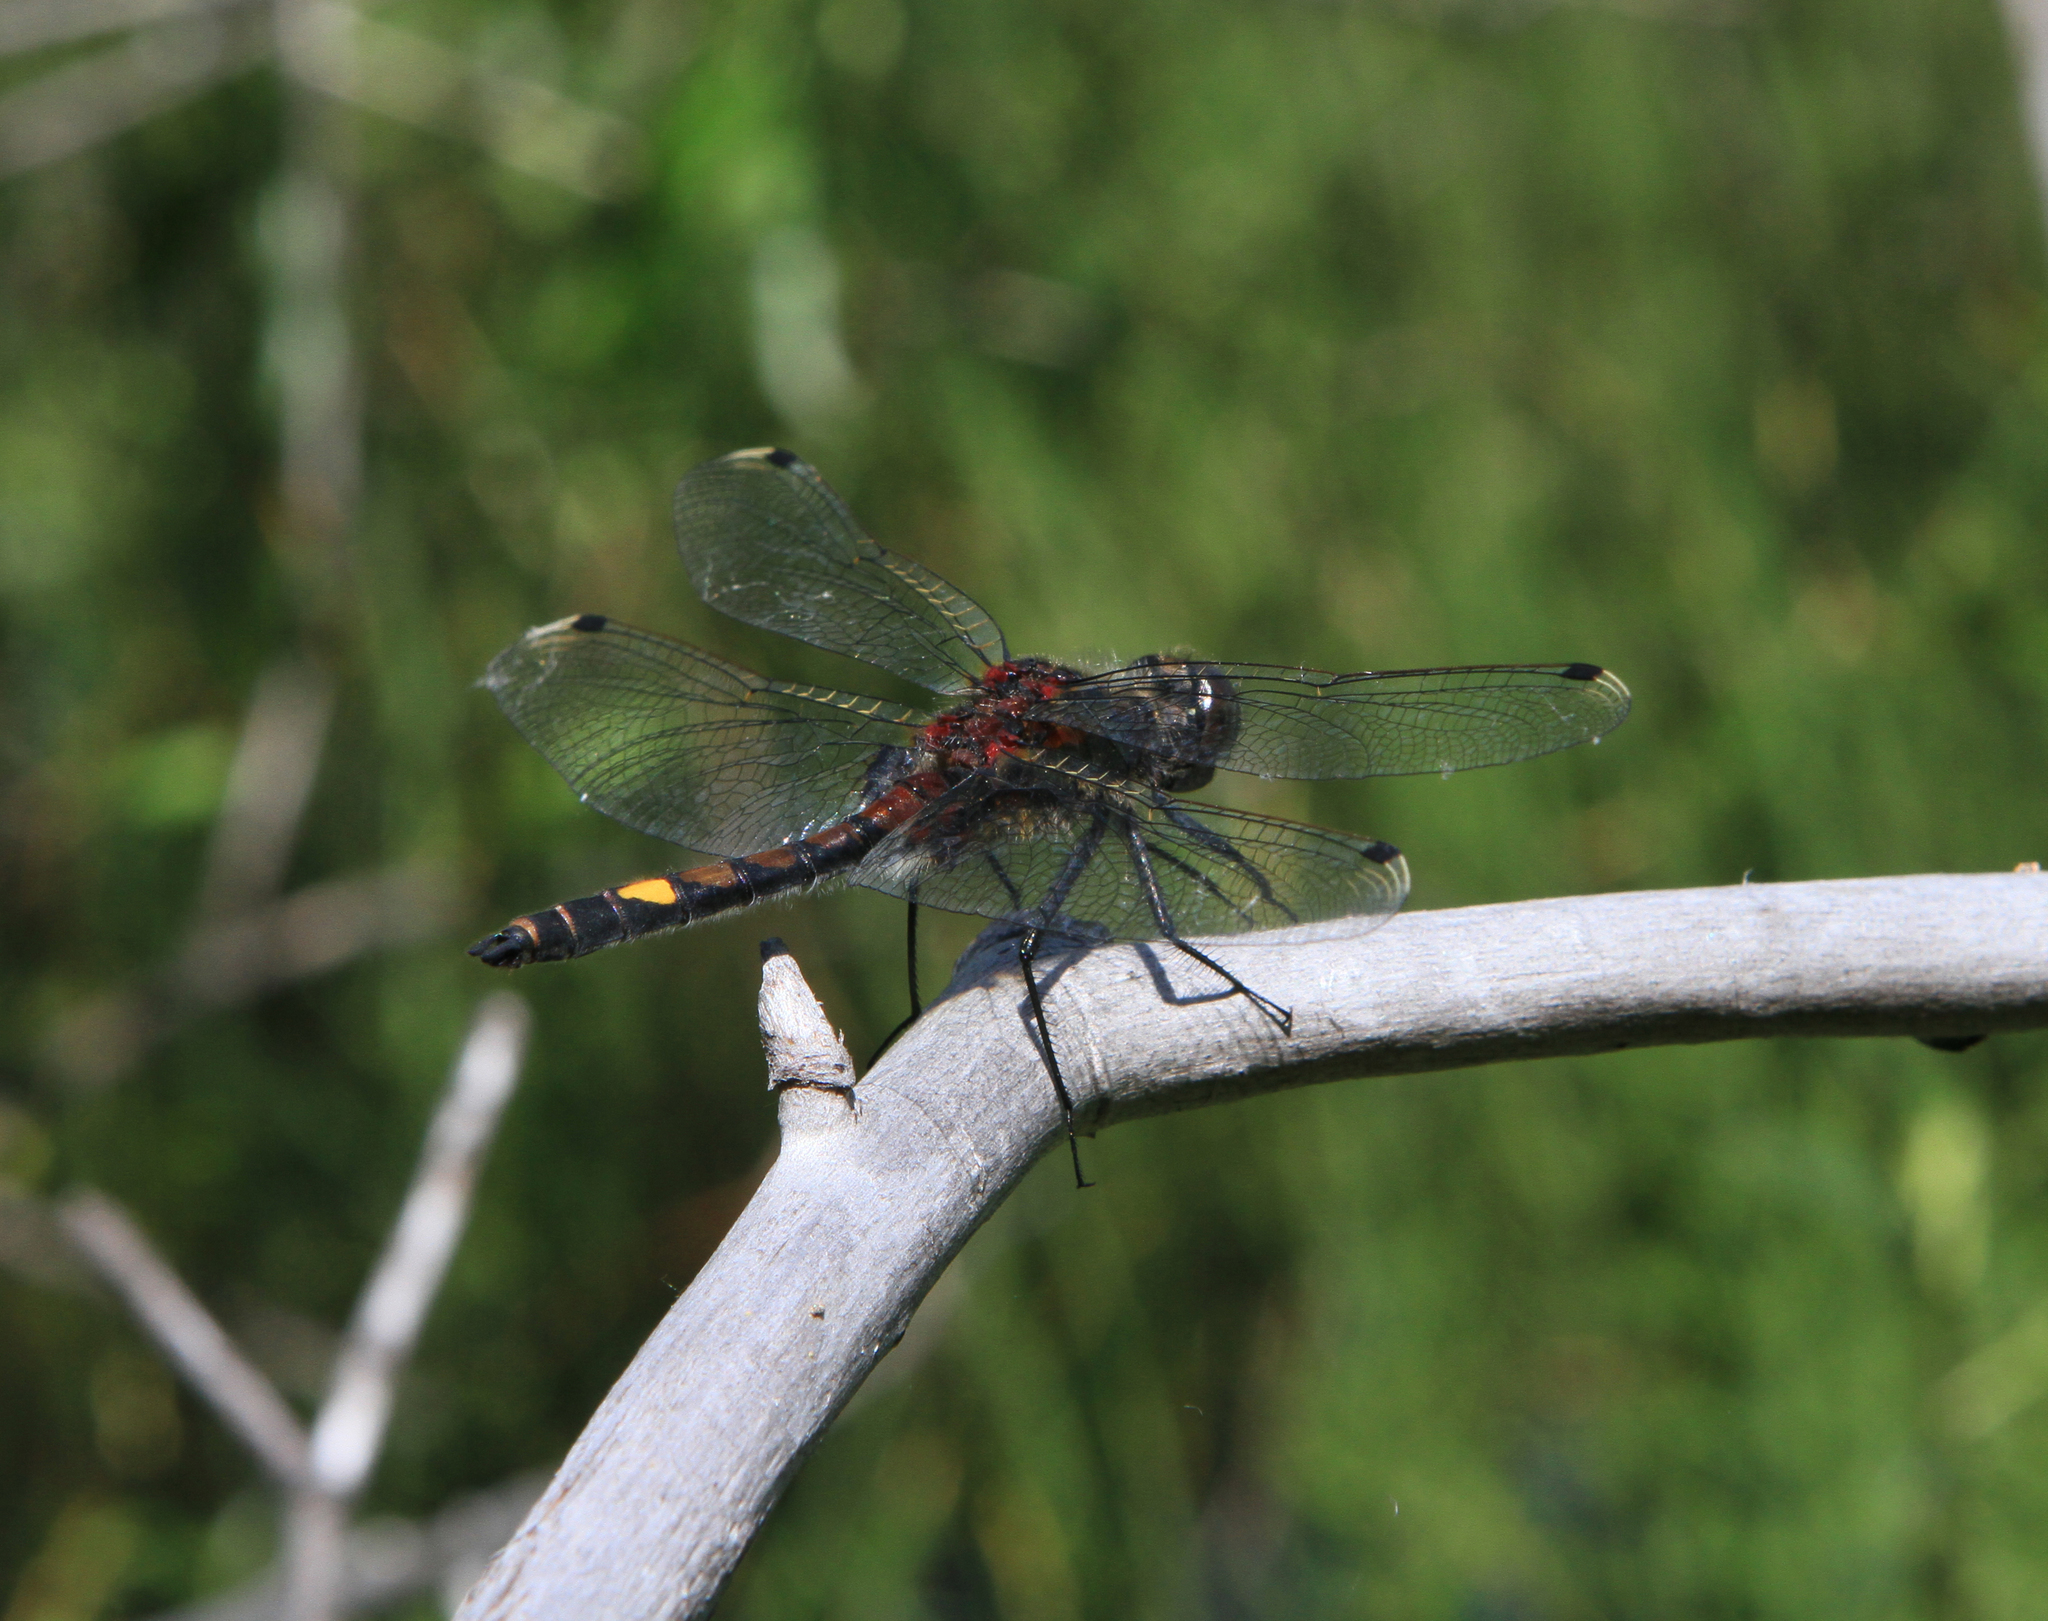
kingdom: Animalia
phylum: Arthropoda
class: Insecta
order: Odonata
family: Libellulidae
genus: Leucorrhinia
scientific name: Leucorrhinia pectoralis
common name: Yellow-spotted whiteface
